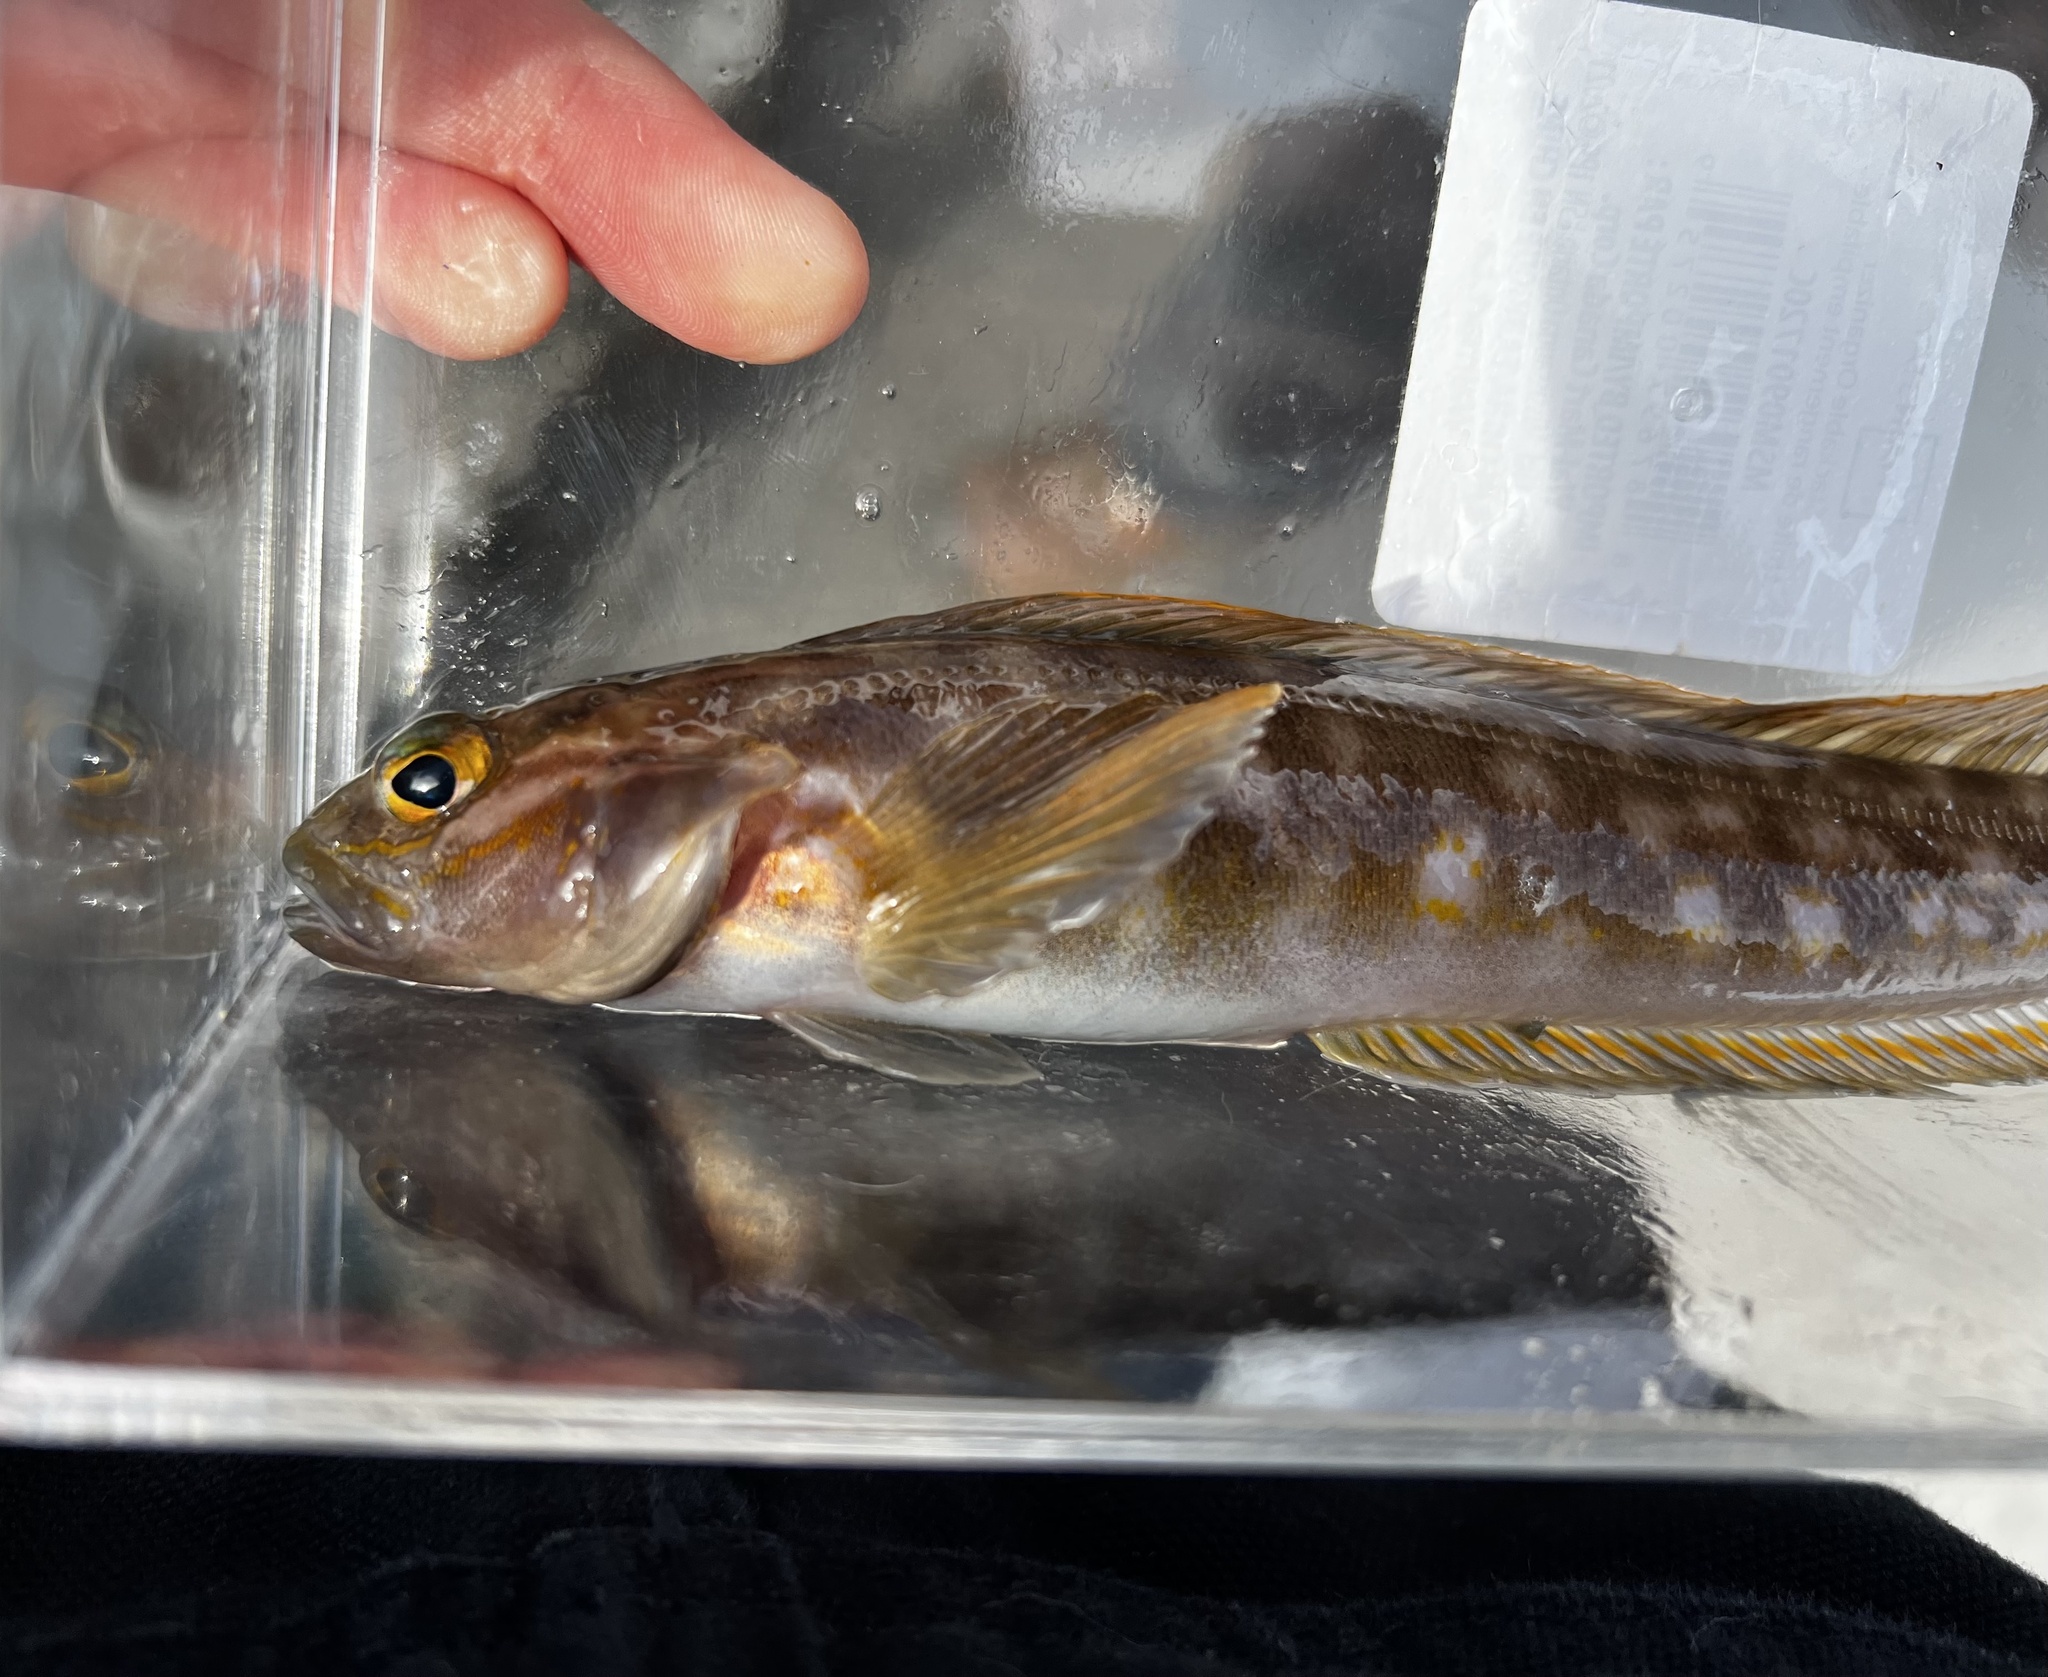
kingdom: Animalia
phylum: Chordata
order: Perciformes
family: Bathymasteridae
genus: Ronquilus
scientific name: Ronquilus jordani
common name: Northern ronquil
